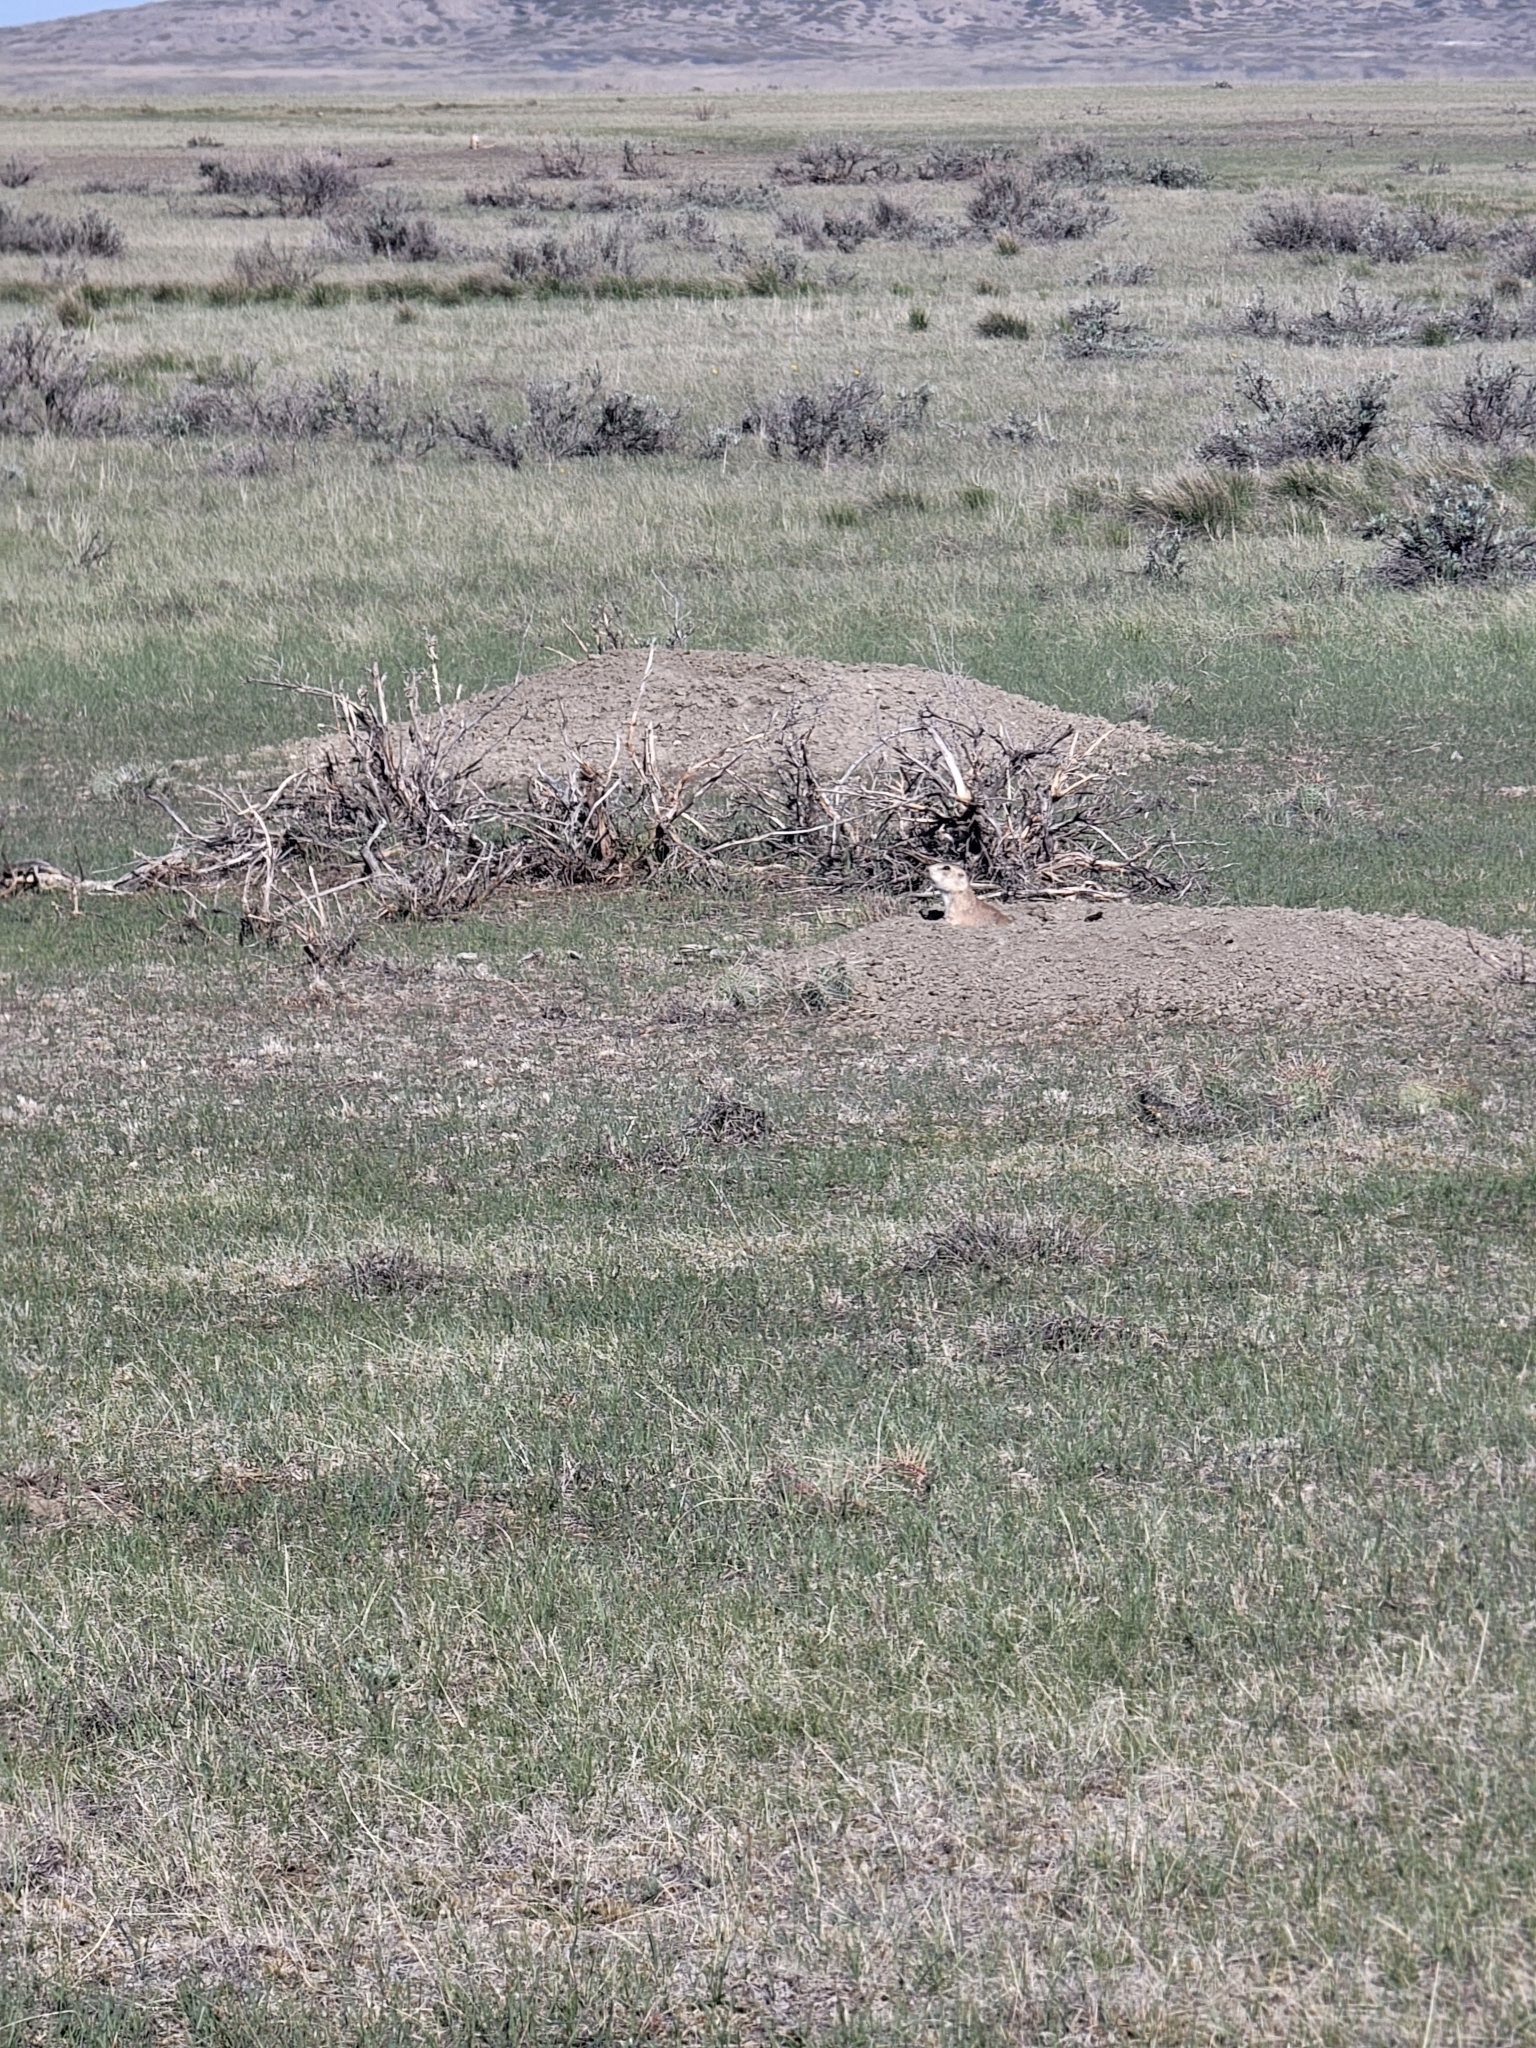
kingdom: Animalia
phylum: Chordata
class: Mammalia
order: Rodentia
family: Sciuridae
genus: Cynomys
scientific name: Cynomys ludovicianus
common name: Black-tailed prairie dog
